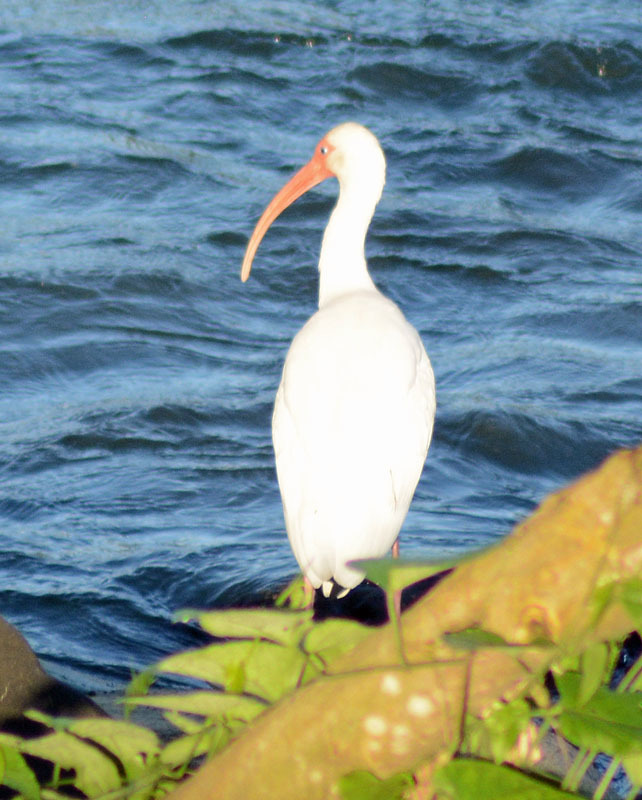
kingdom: Animalia
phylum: Chordata
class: Aves
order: Pelecaniformes
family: Threskiornithidae
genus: Eudocimus
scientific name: Eudocimus albus
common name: White ibis
